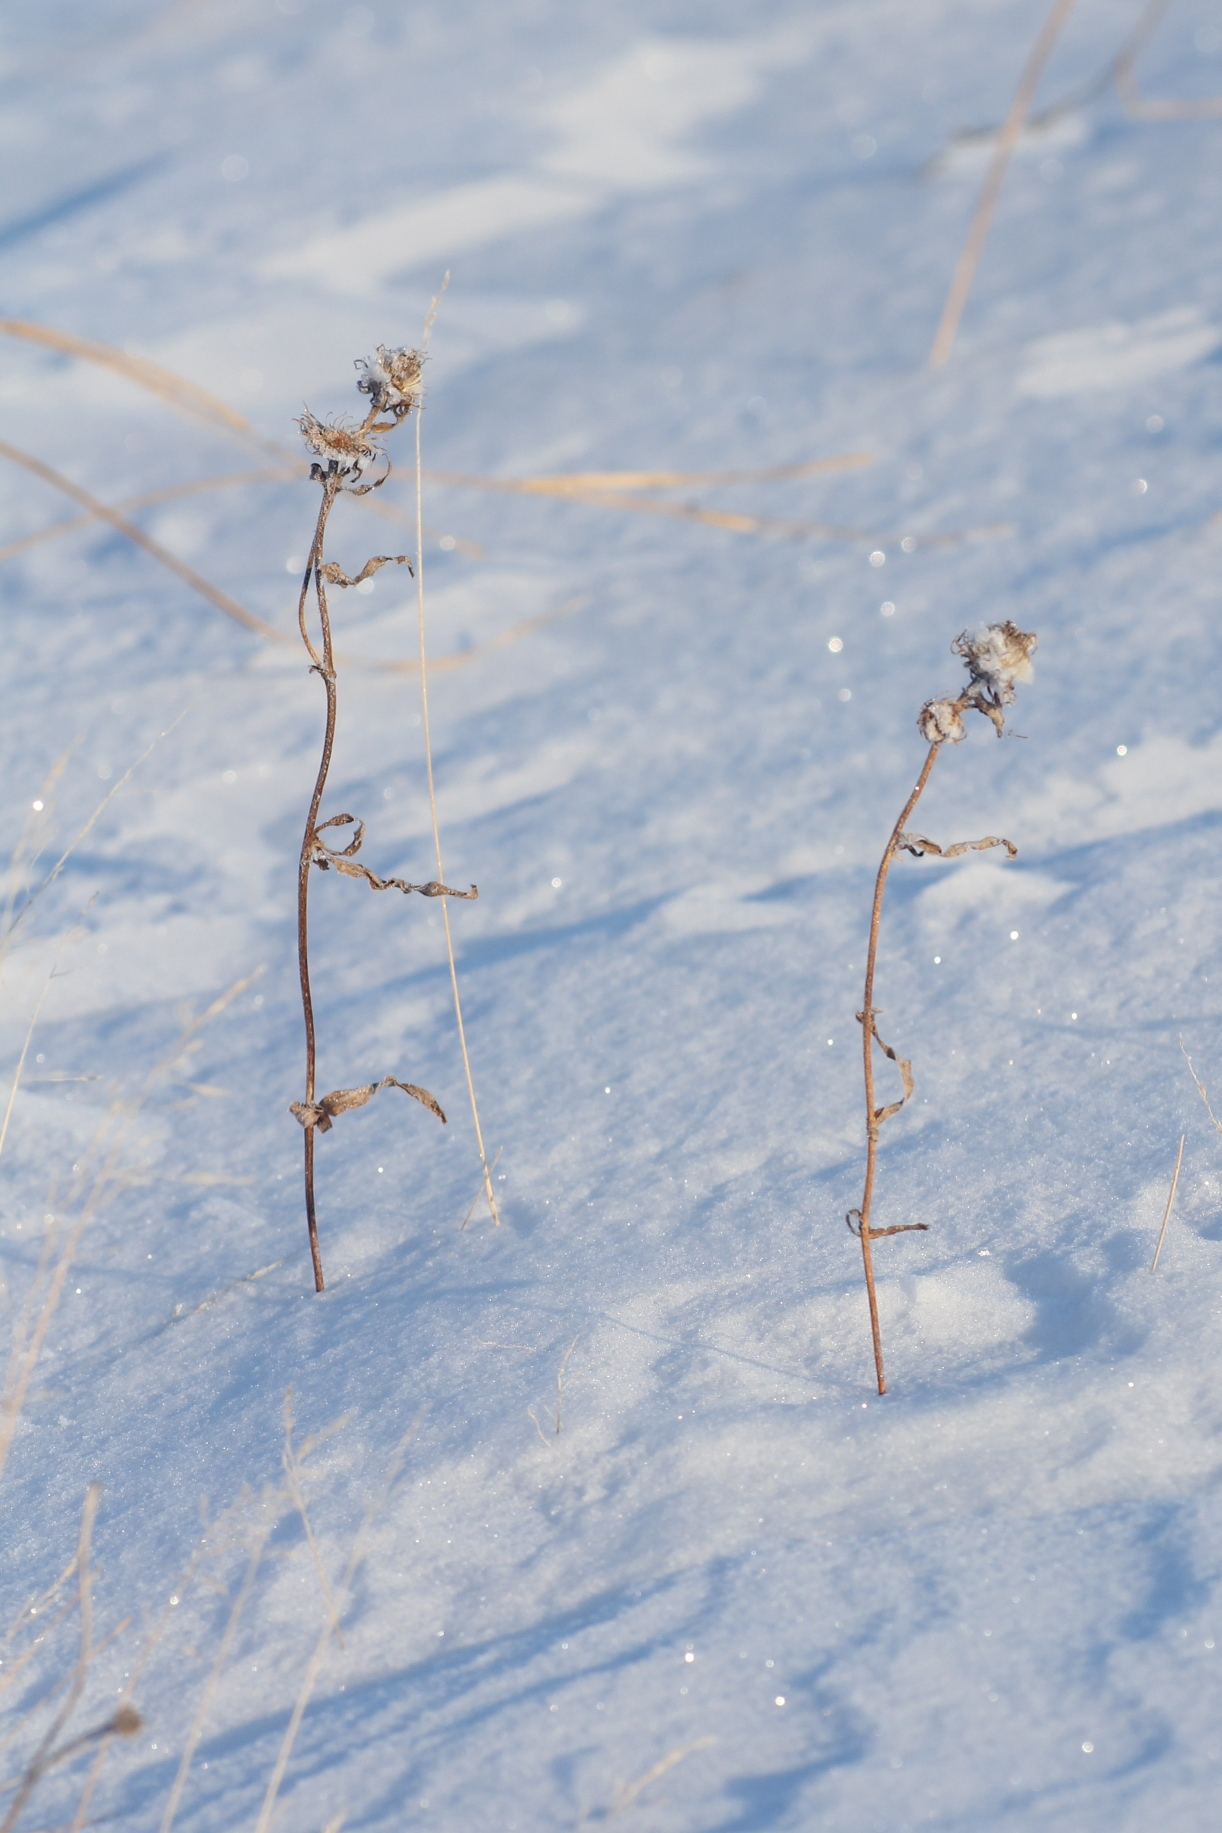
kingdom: Plantae
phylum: Tracheophyta
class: Magnoliopsida
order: Asterales
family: Asteraceae
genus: Pentanema
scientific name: Pentanema britannicum
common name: British elecampane
